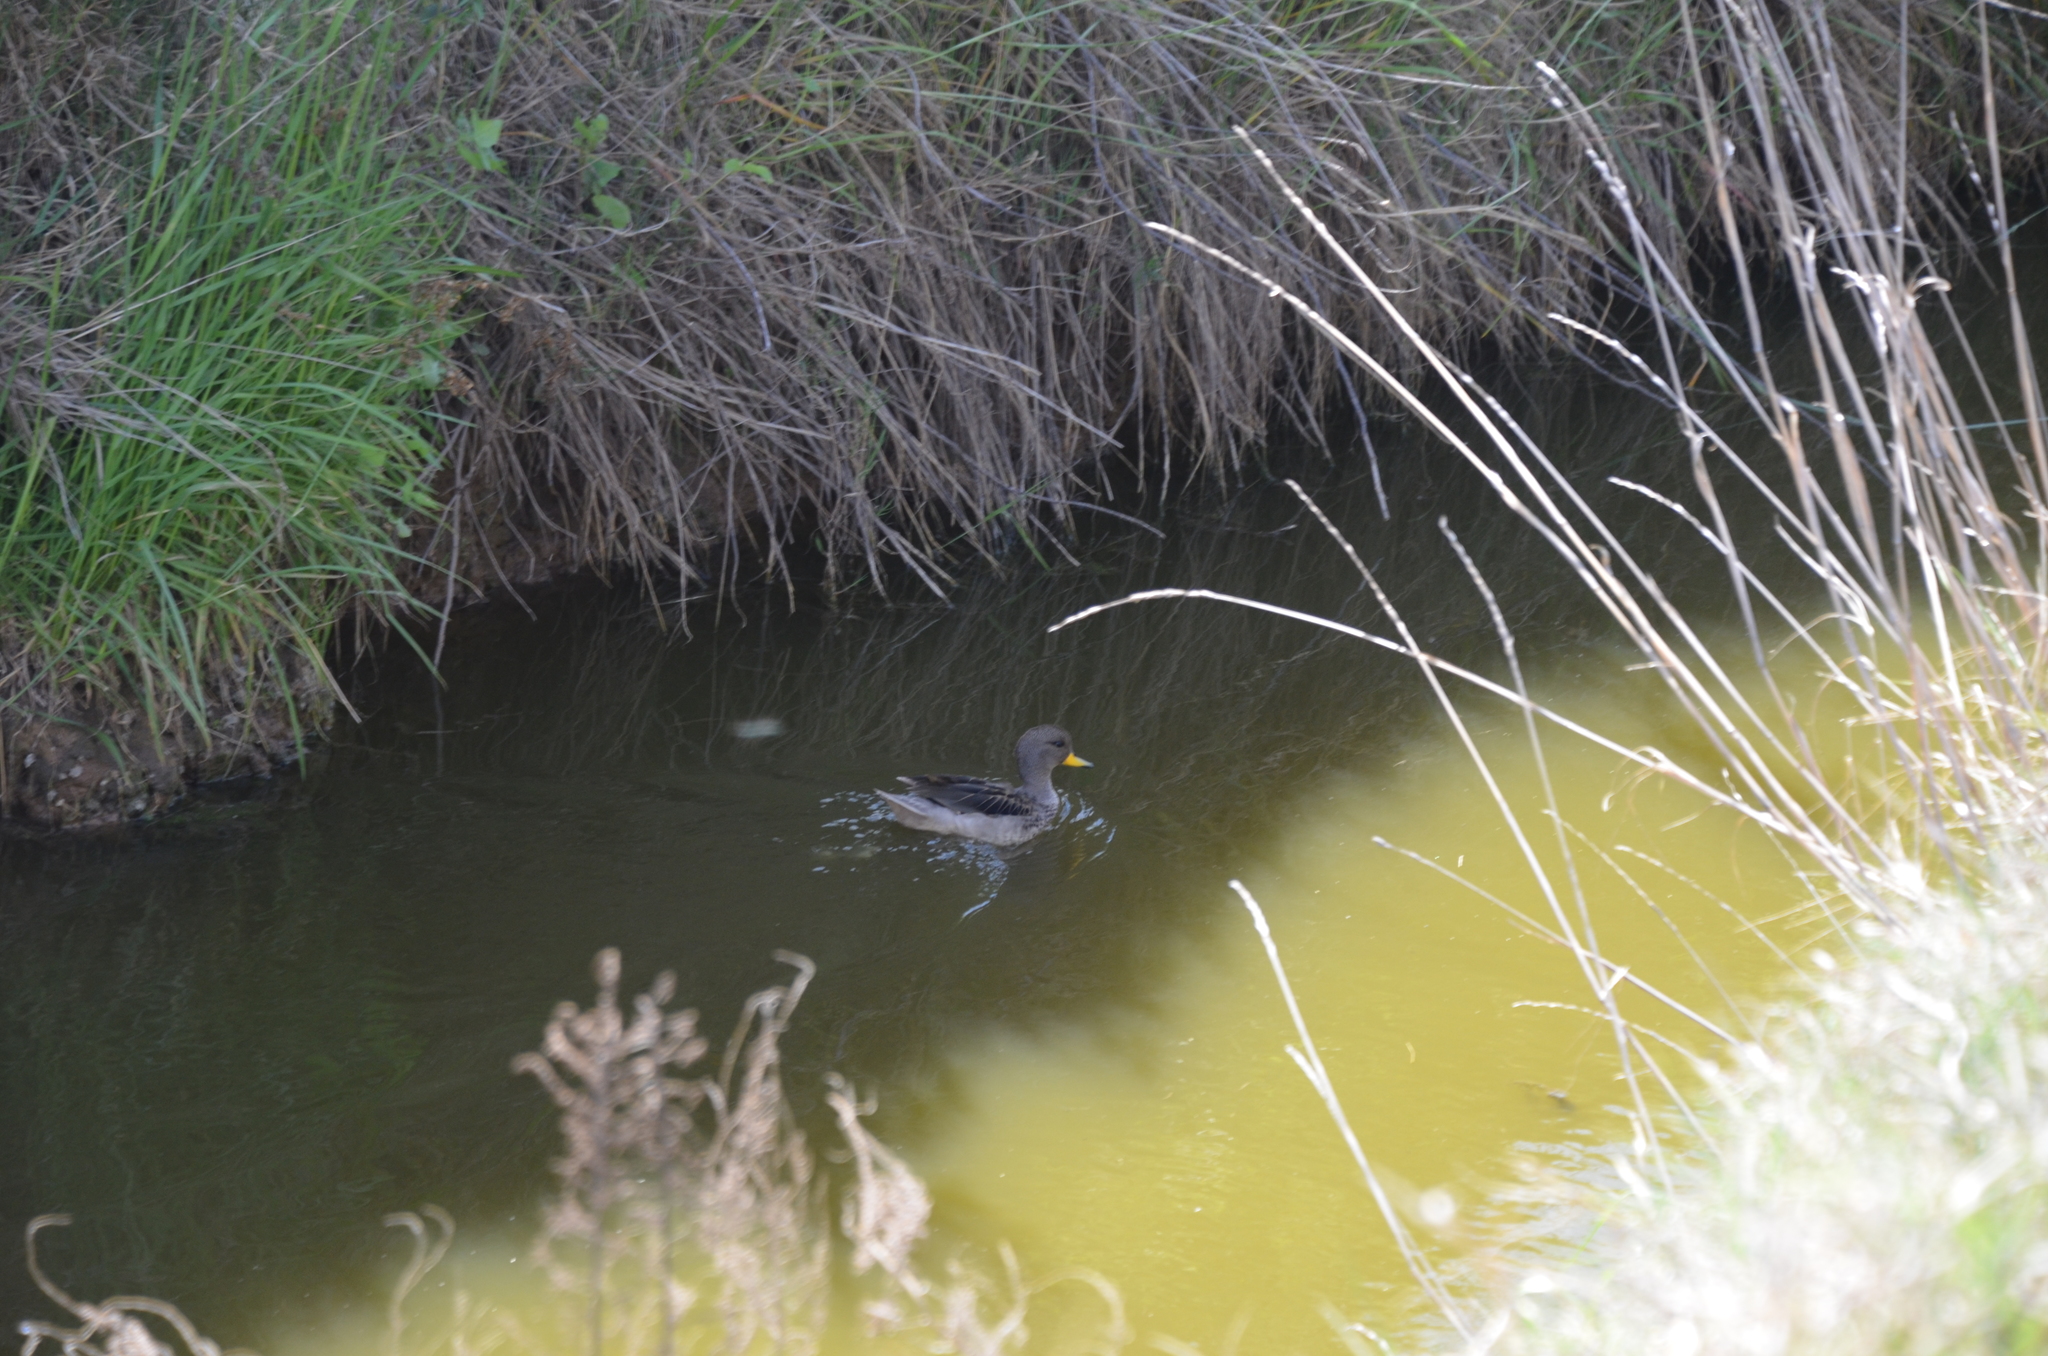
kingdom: Animalia
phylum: Chordata
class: Aves
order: Anseriformes
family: Anatidae
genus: Anas
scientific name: Anas flavirostris
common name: Yellow-billed teal
